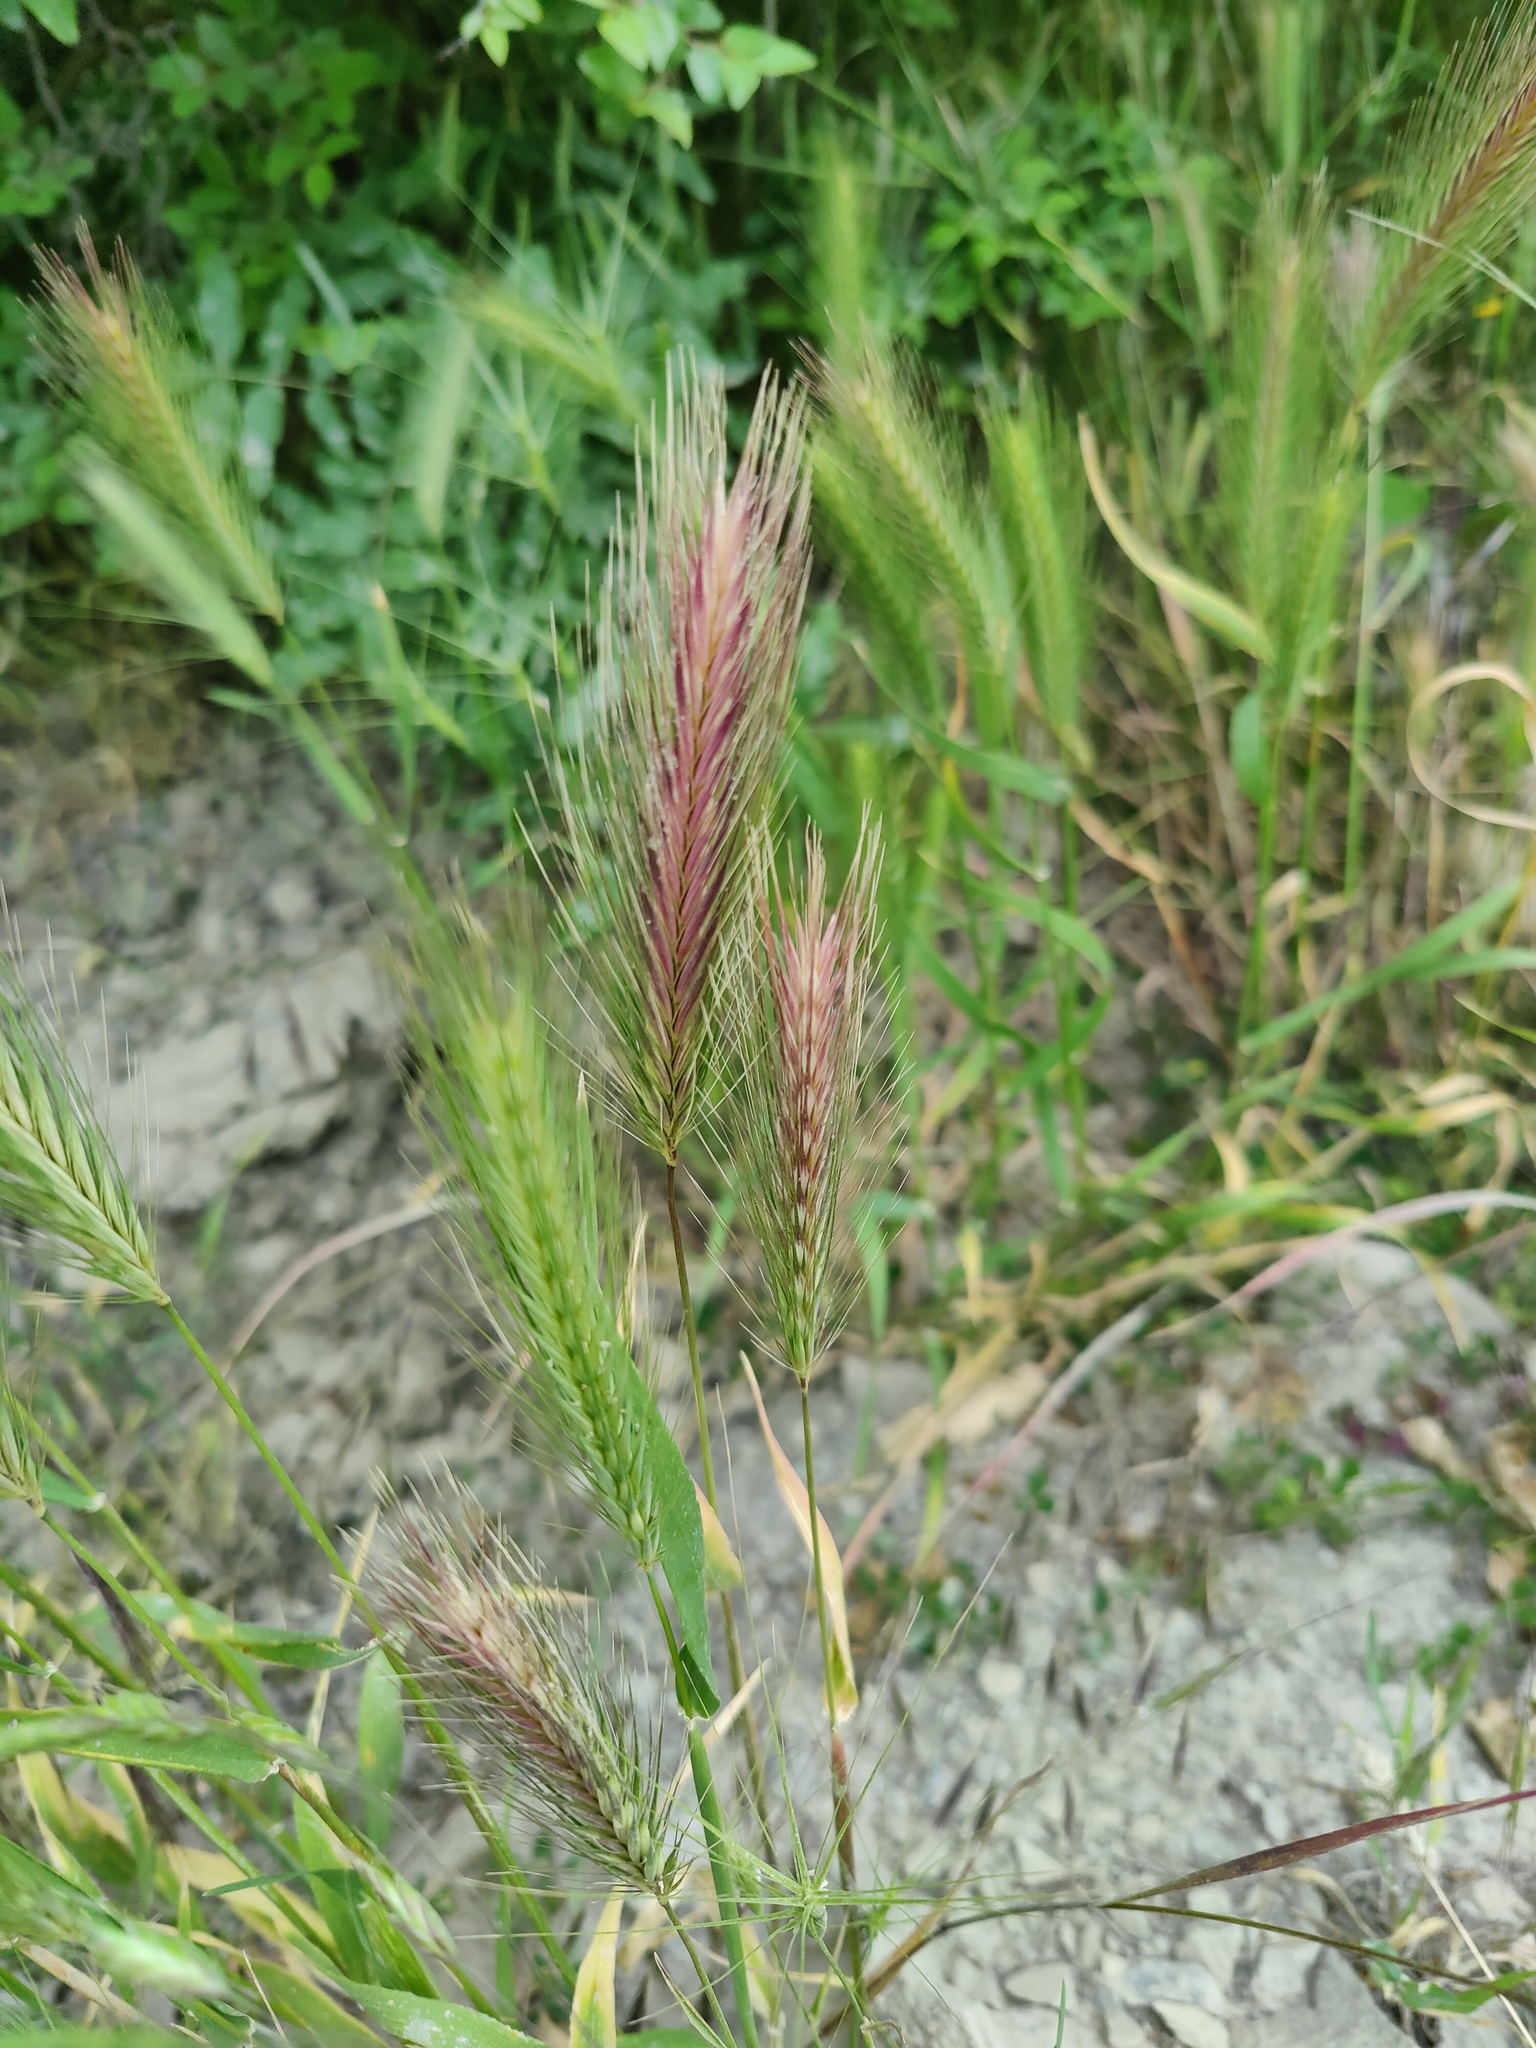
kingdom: Plantae
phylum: Tracheophyta
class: Liliopsida
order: Poales
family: Poaceae
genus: Hordeum
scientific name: Hordeum murinum
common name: Wall barley
